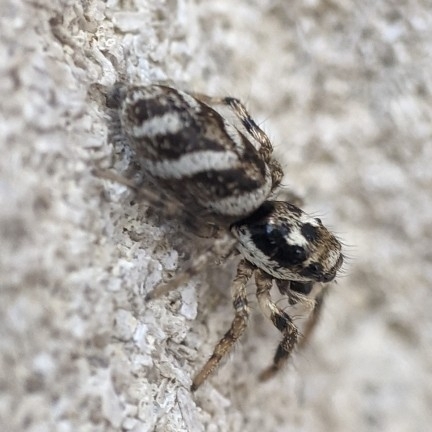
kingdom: Animalia
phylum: Arthropoda
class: Arachnida
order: Araneae
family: Salticidae
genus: Salticus
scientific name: Salticus scenicus
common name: Zebra jumper
